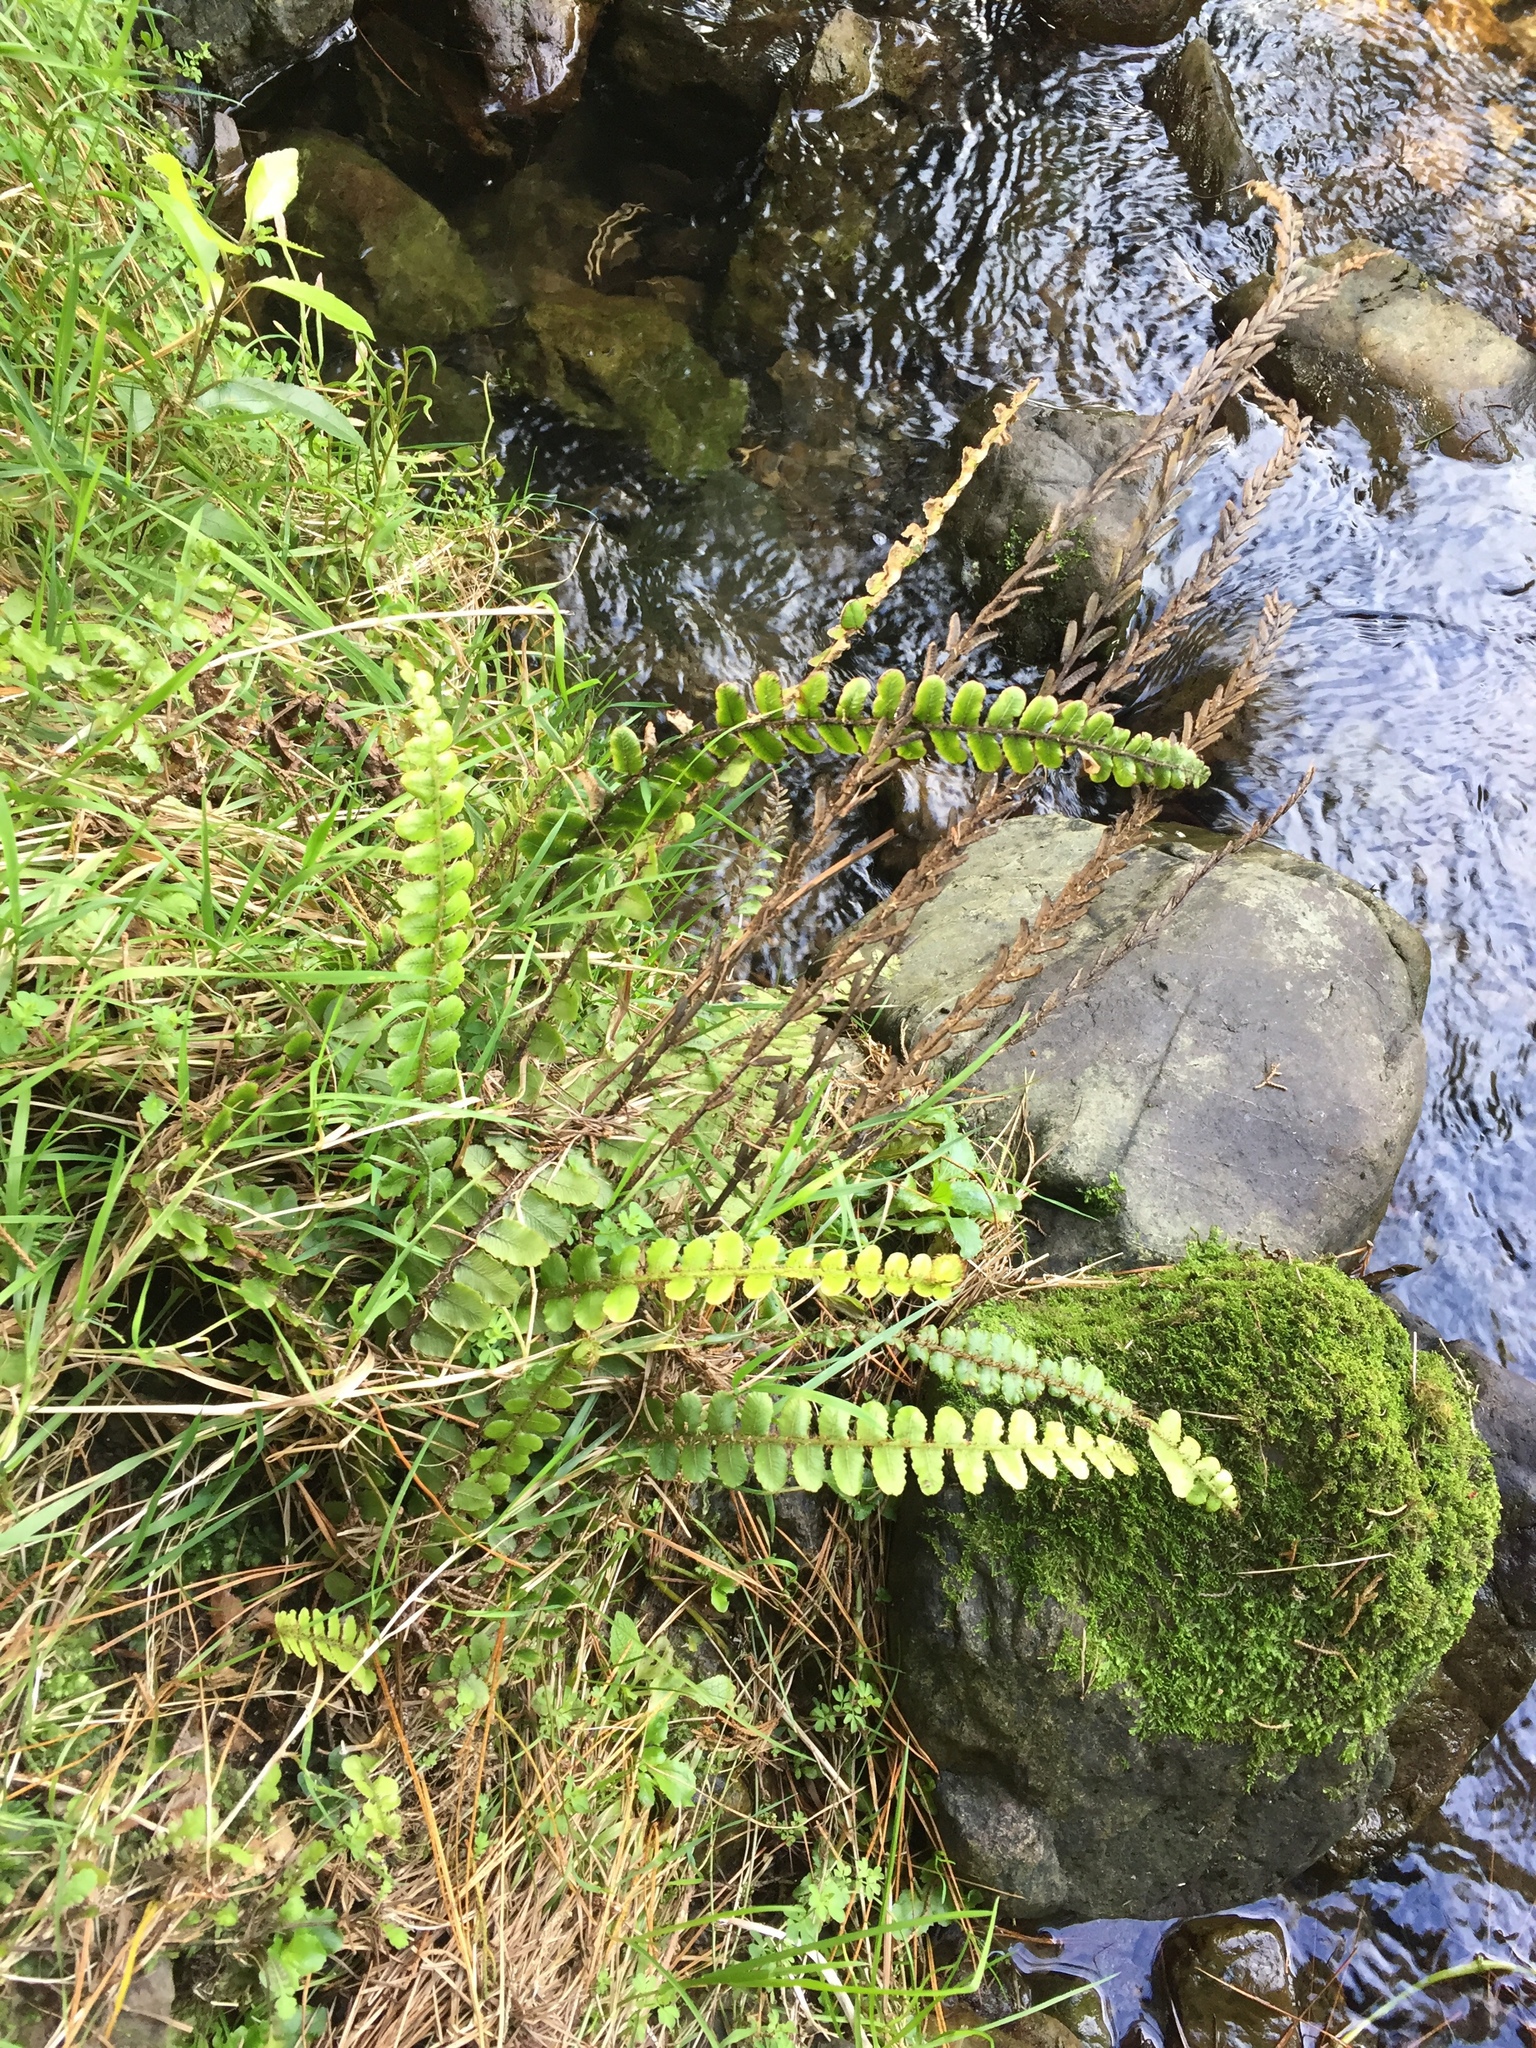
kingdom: Plantae
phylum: Tracheophyta
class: Polypodiopsida
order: Polypodiales
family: Blechnaceae
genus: Cranfillia
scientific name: Cranfillia fluviatilis
